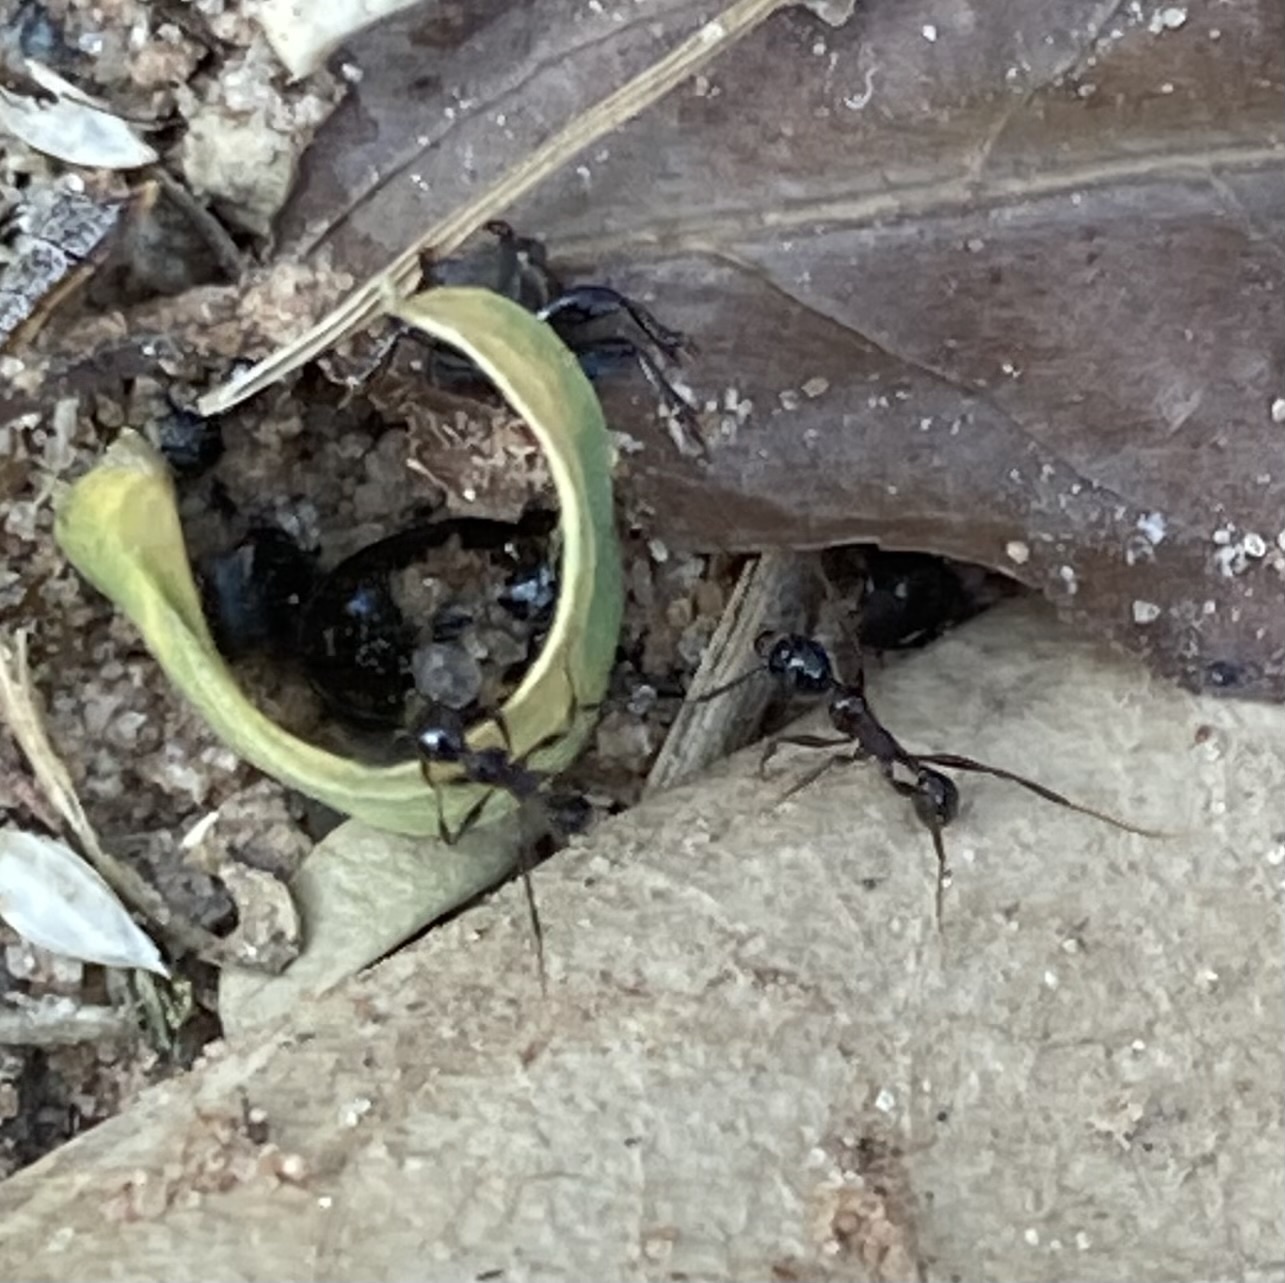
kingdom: Animalia
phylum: Arthropoda
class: Insecta
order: Hymenoptera
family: Formicidae
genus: Pheidole
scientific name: Pheidole
